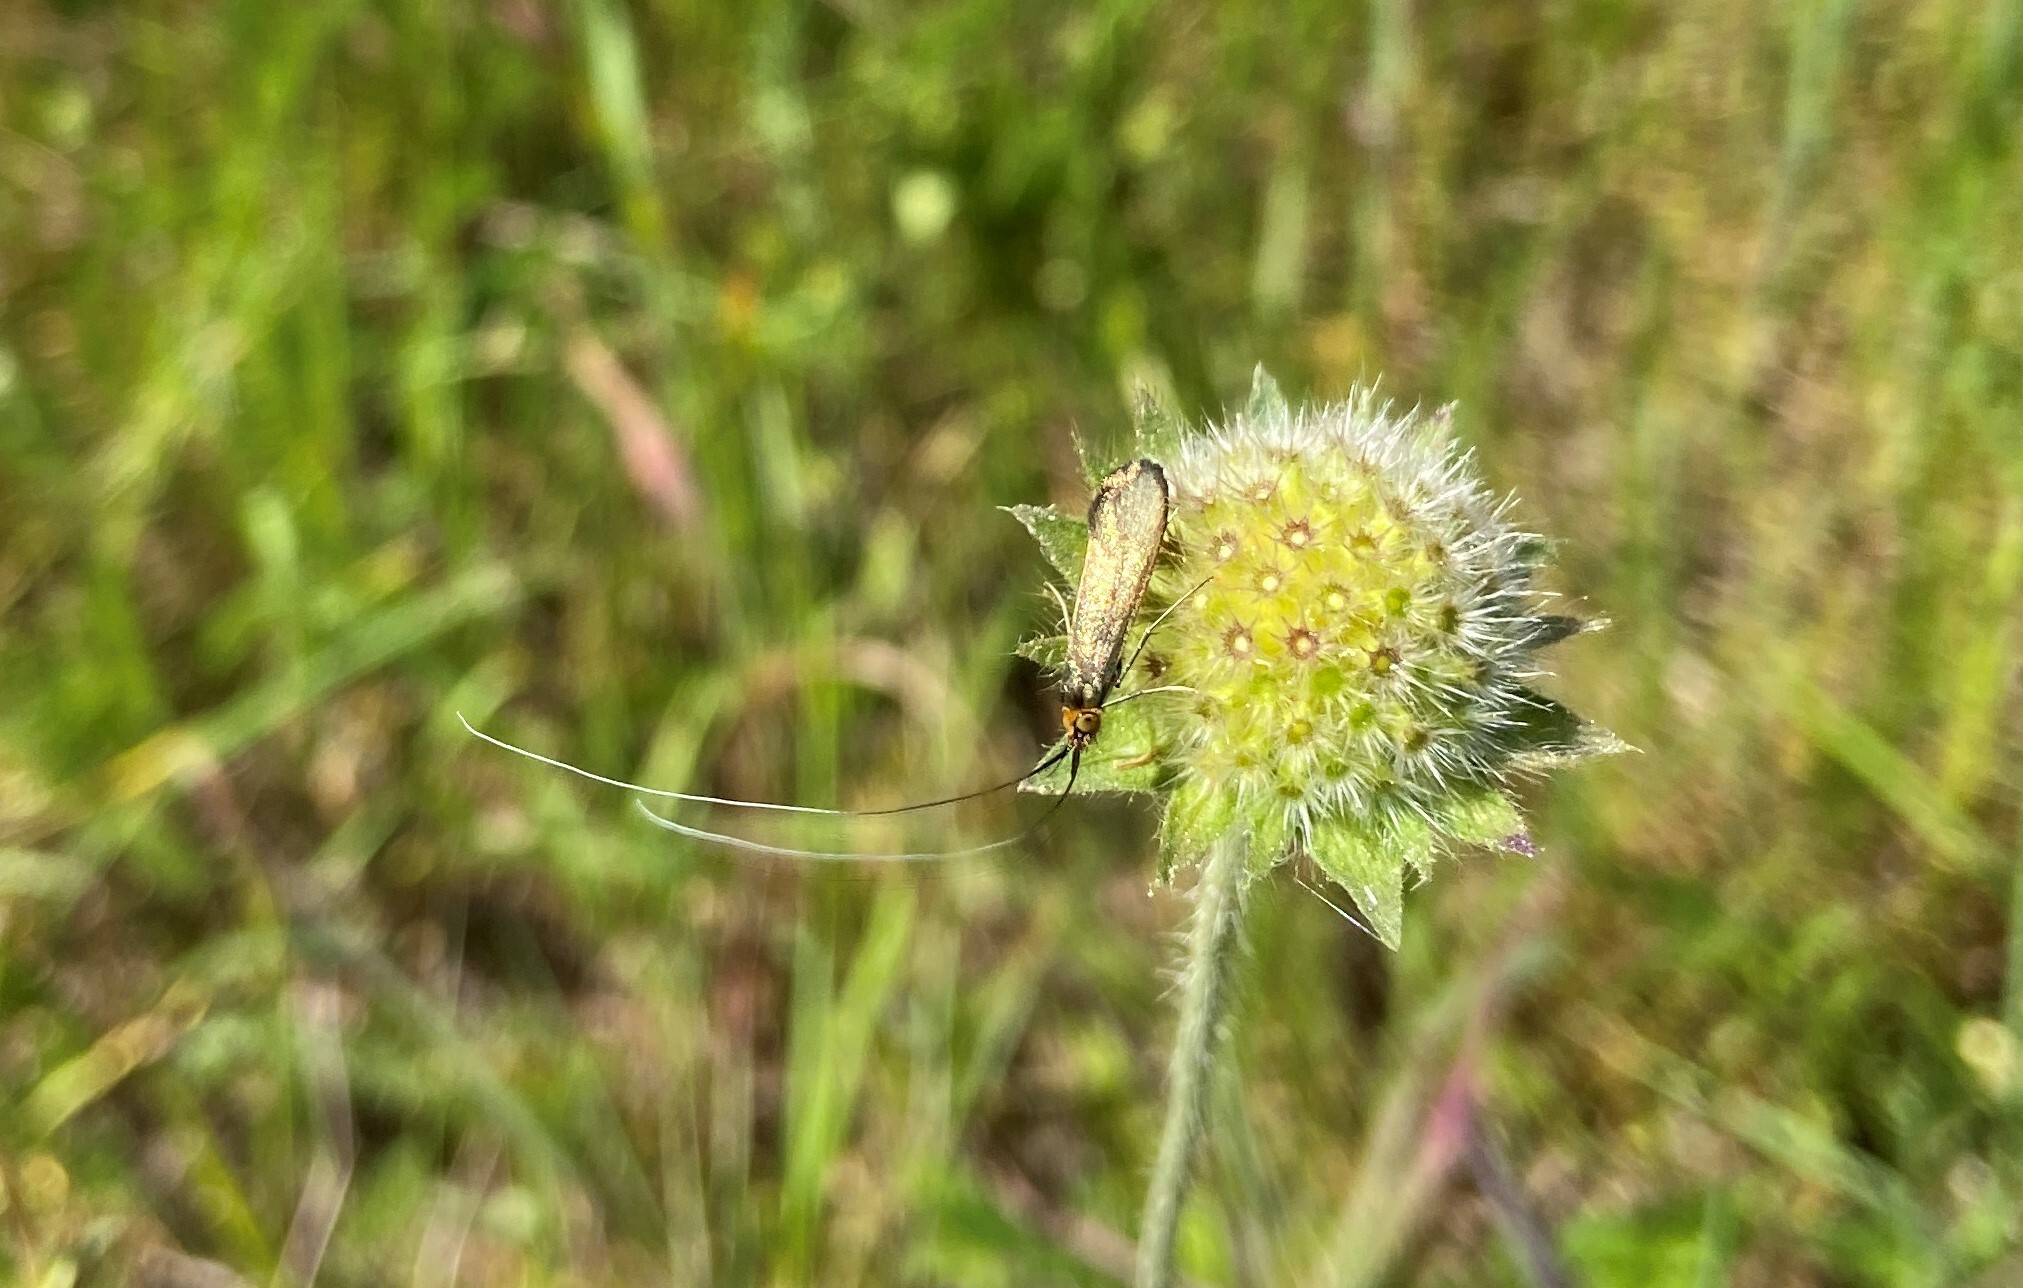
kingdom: Animalia
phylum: Arthropoda
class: Insecta
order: Lepidoptera
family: Adelidae
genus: Nemophora
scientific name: Nemophora metallica
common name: Brassy long-horn
